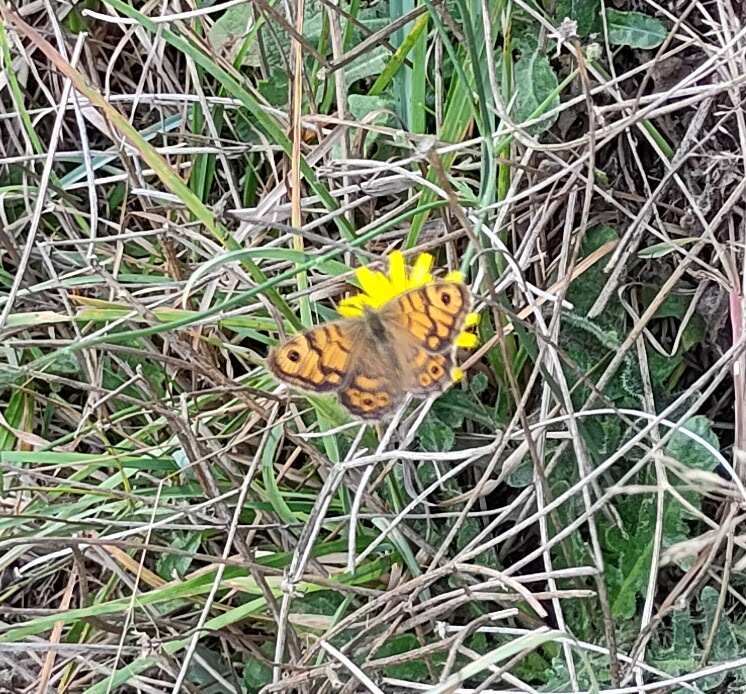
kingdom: Animalia
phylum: Arthropoda
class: Insecta
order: Lepidoptera
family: Nymphalidae
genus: Pararge
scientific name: Pararge Lasiommata megera
